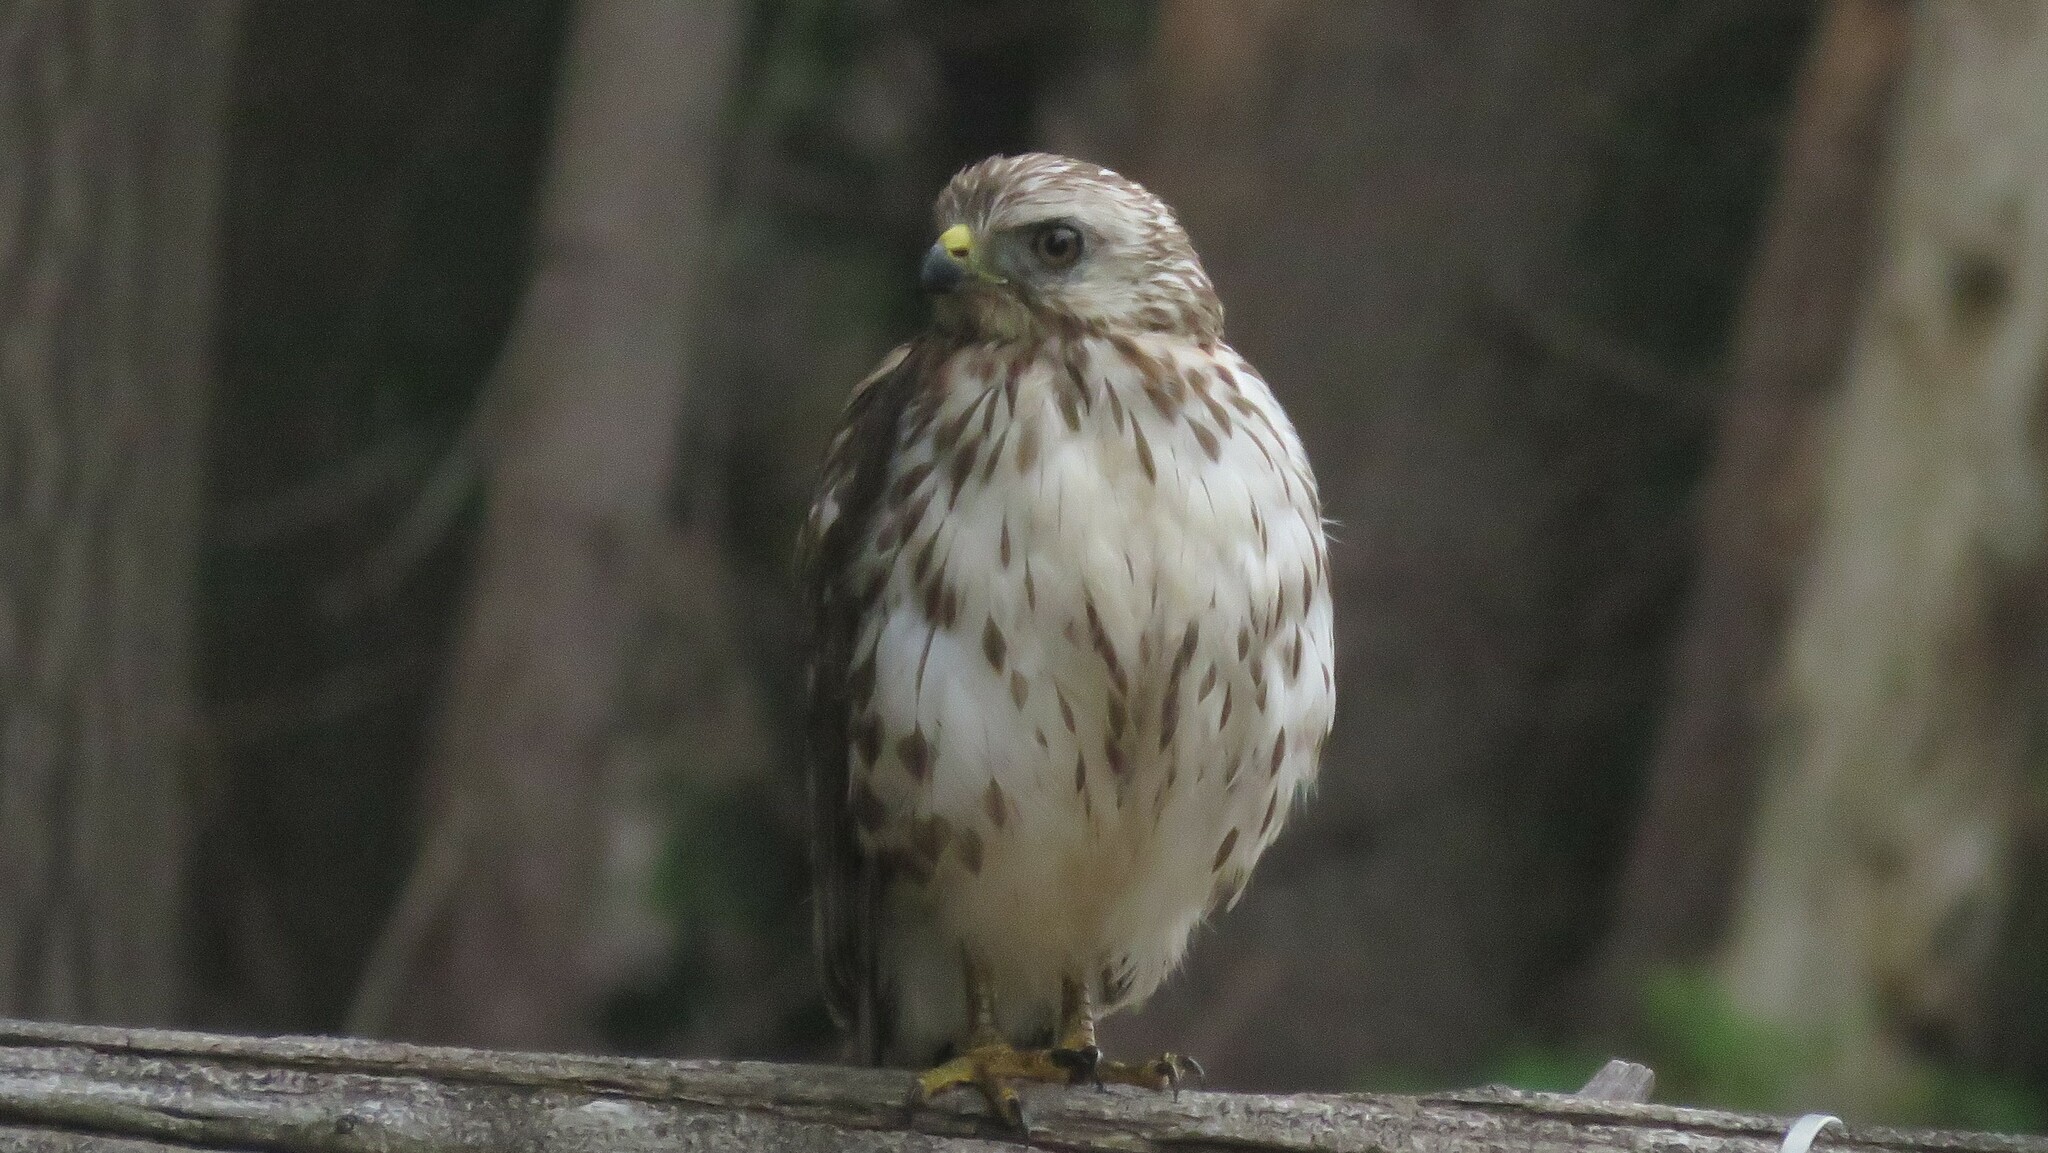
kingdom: Animalia
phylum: Chordata
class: Aves
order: Accipitriformes
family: Accipitridae
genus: Buteo
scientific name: Buteo platypterus
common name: Broad-winged hawk
